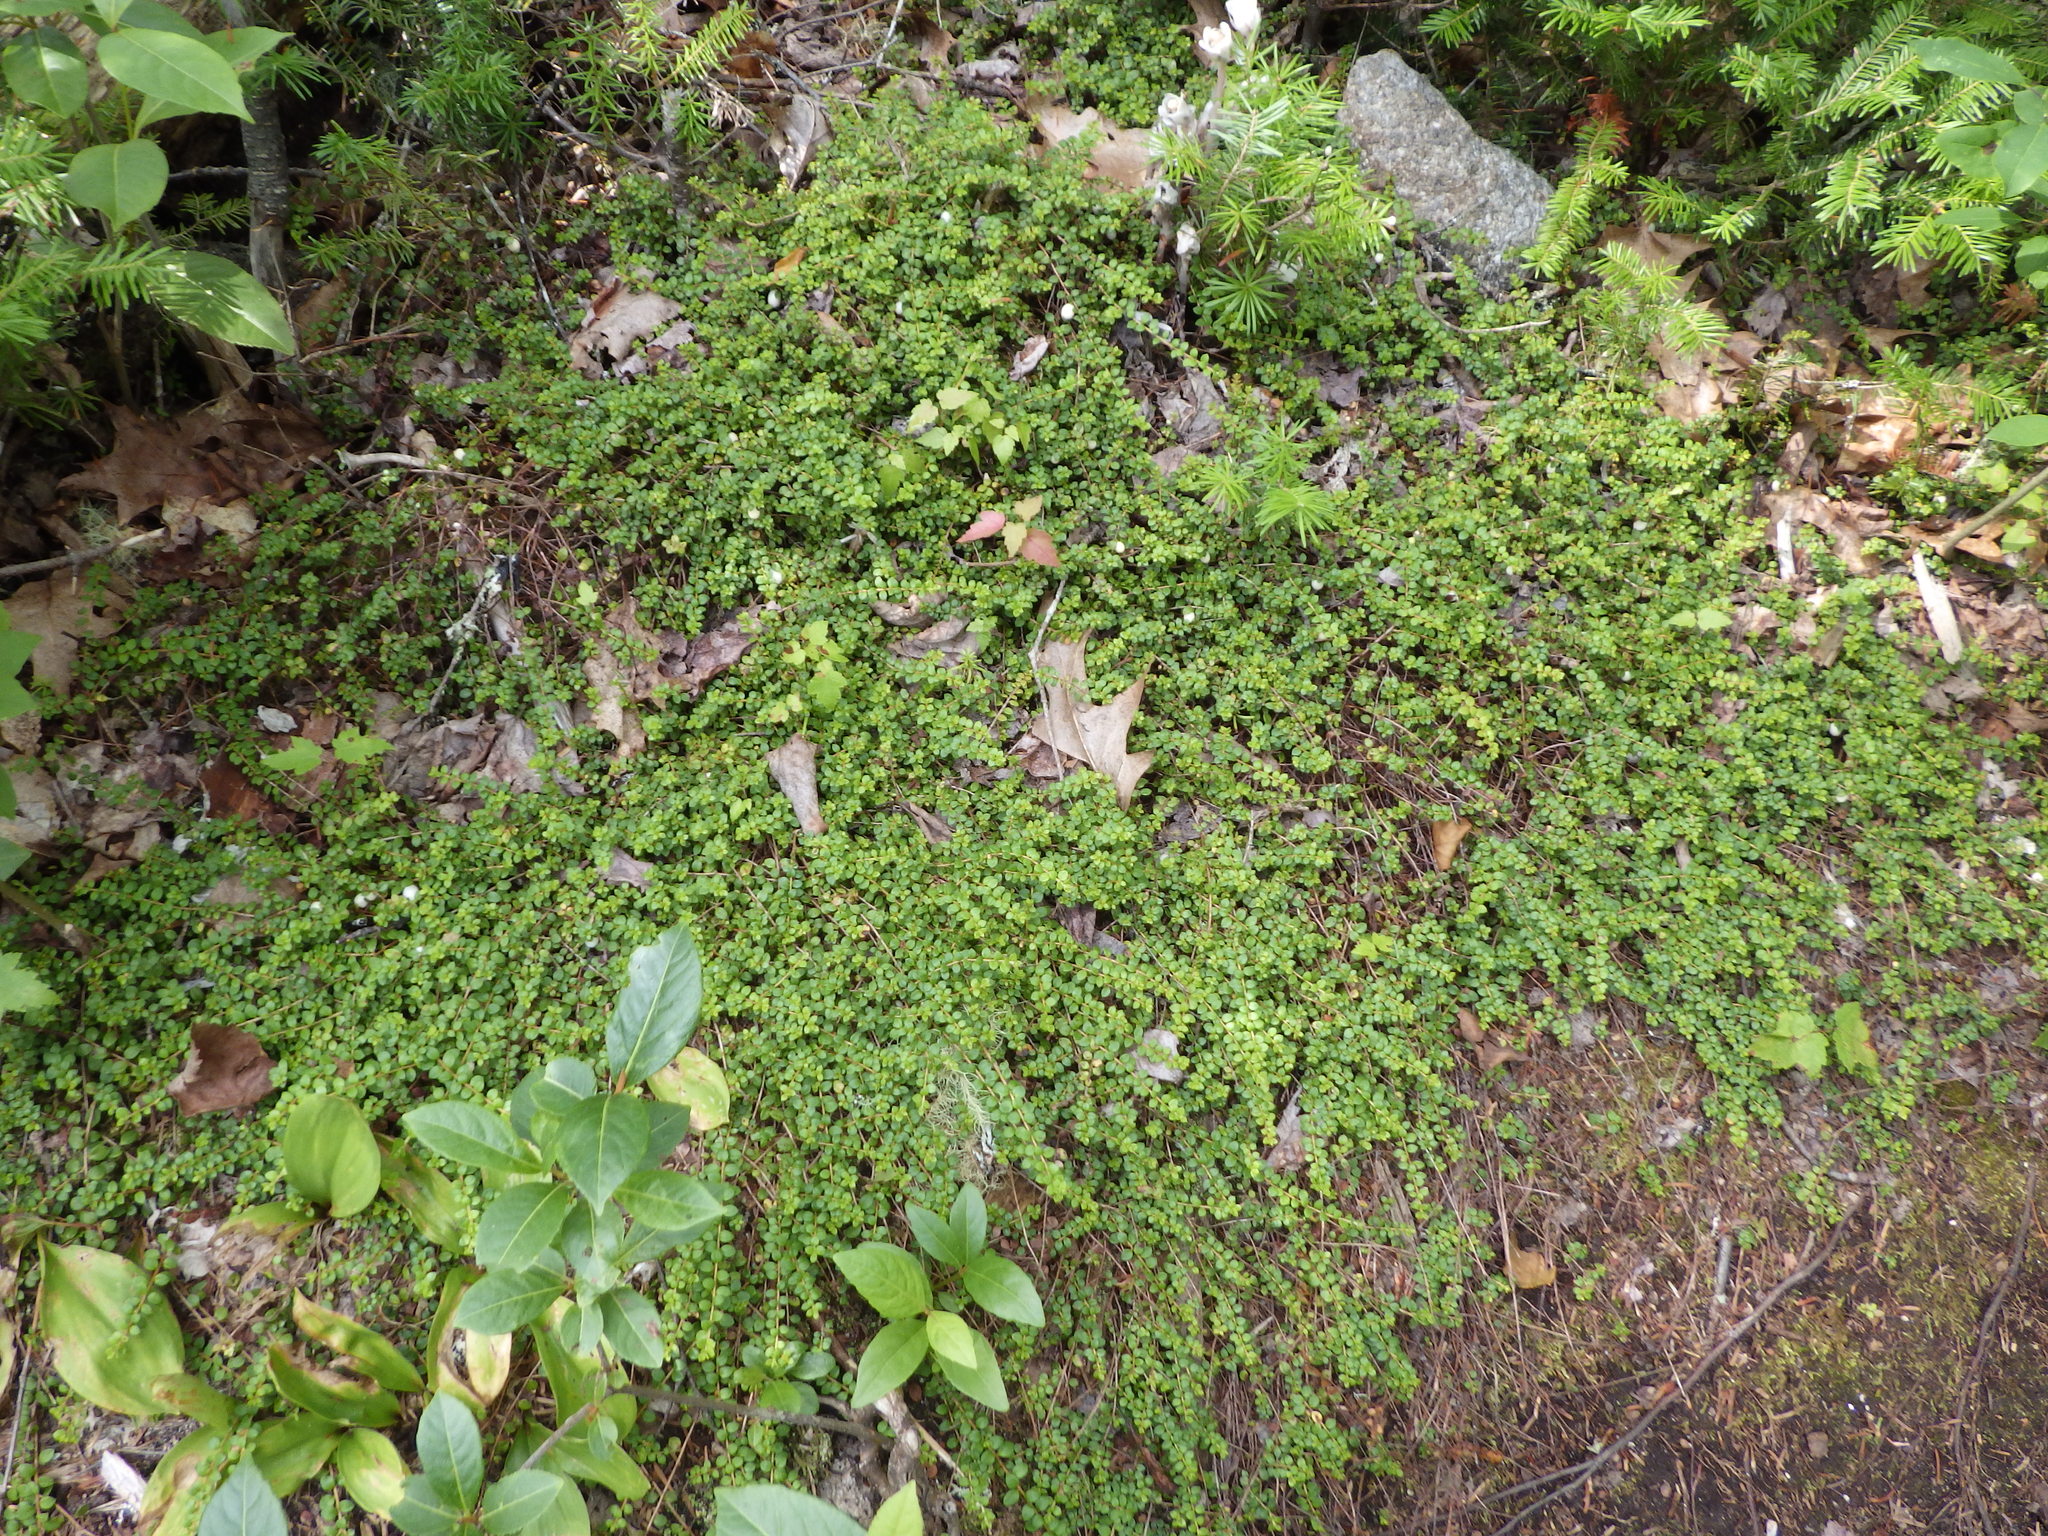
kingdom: Plantae
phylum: Tracheophyta
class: Magnoliopsida
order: Ericales
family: Ericaceae
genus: Gaultheria
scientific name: Gaultheria hispidula
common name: Cancer wintergreen
